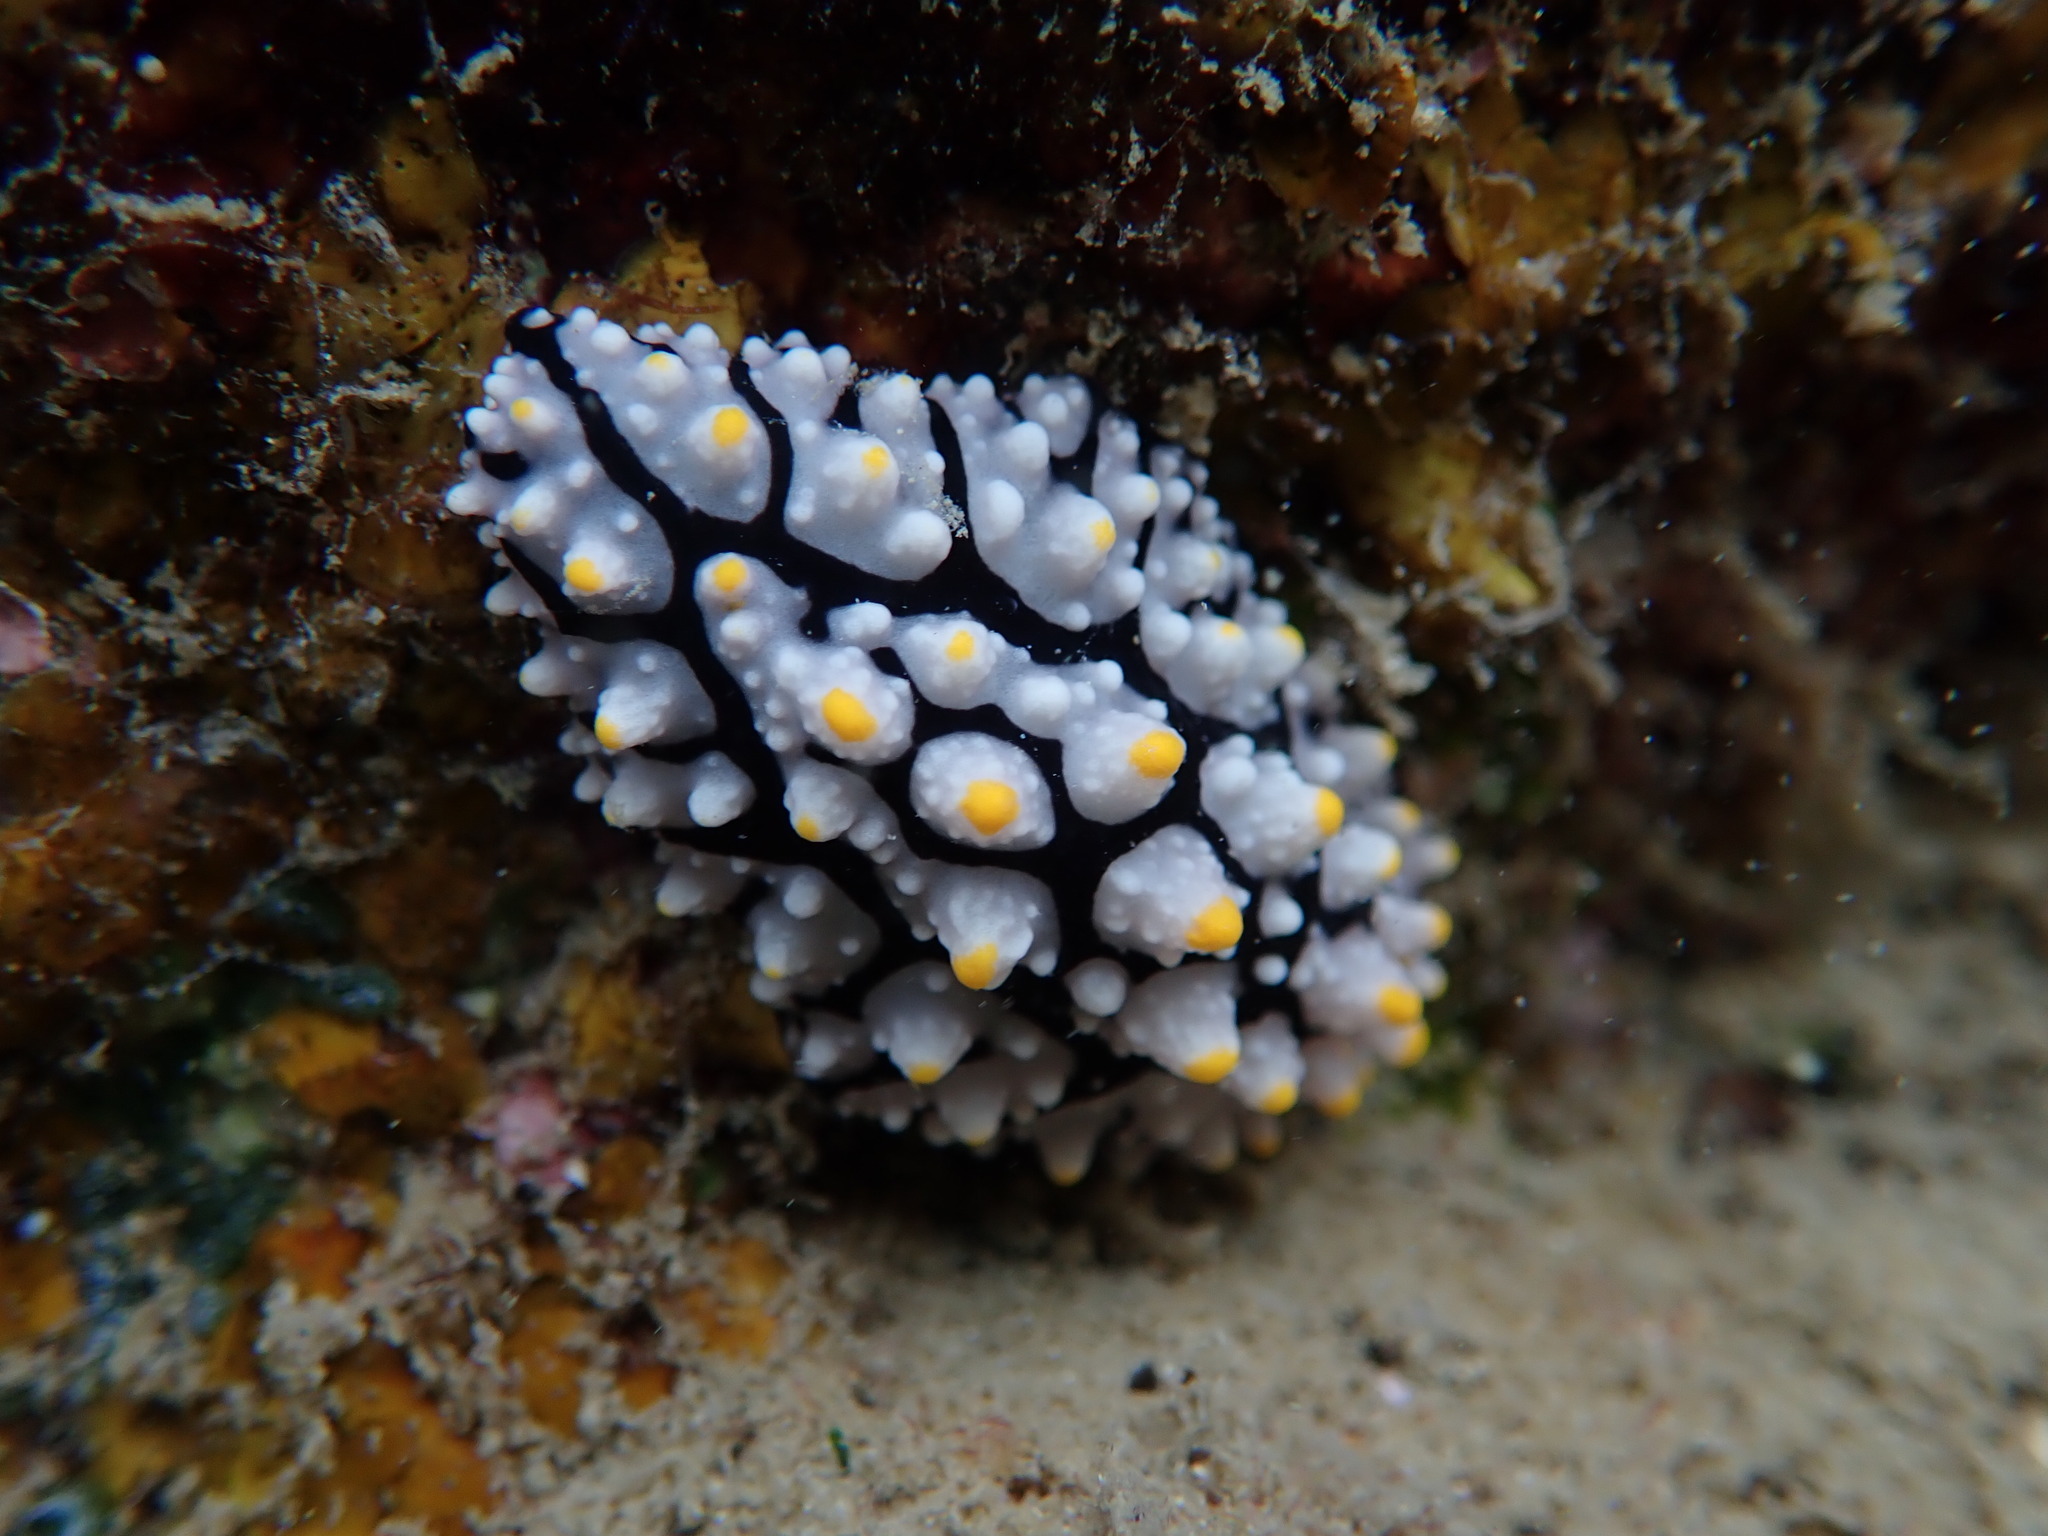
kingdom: Animalia
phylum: Mollusca
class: Gastropoda
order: Nudibranchia
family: Phyllidiidae
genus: Phyllidia
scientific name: Phyllidia elegans
